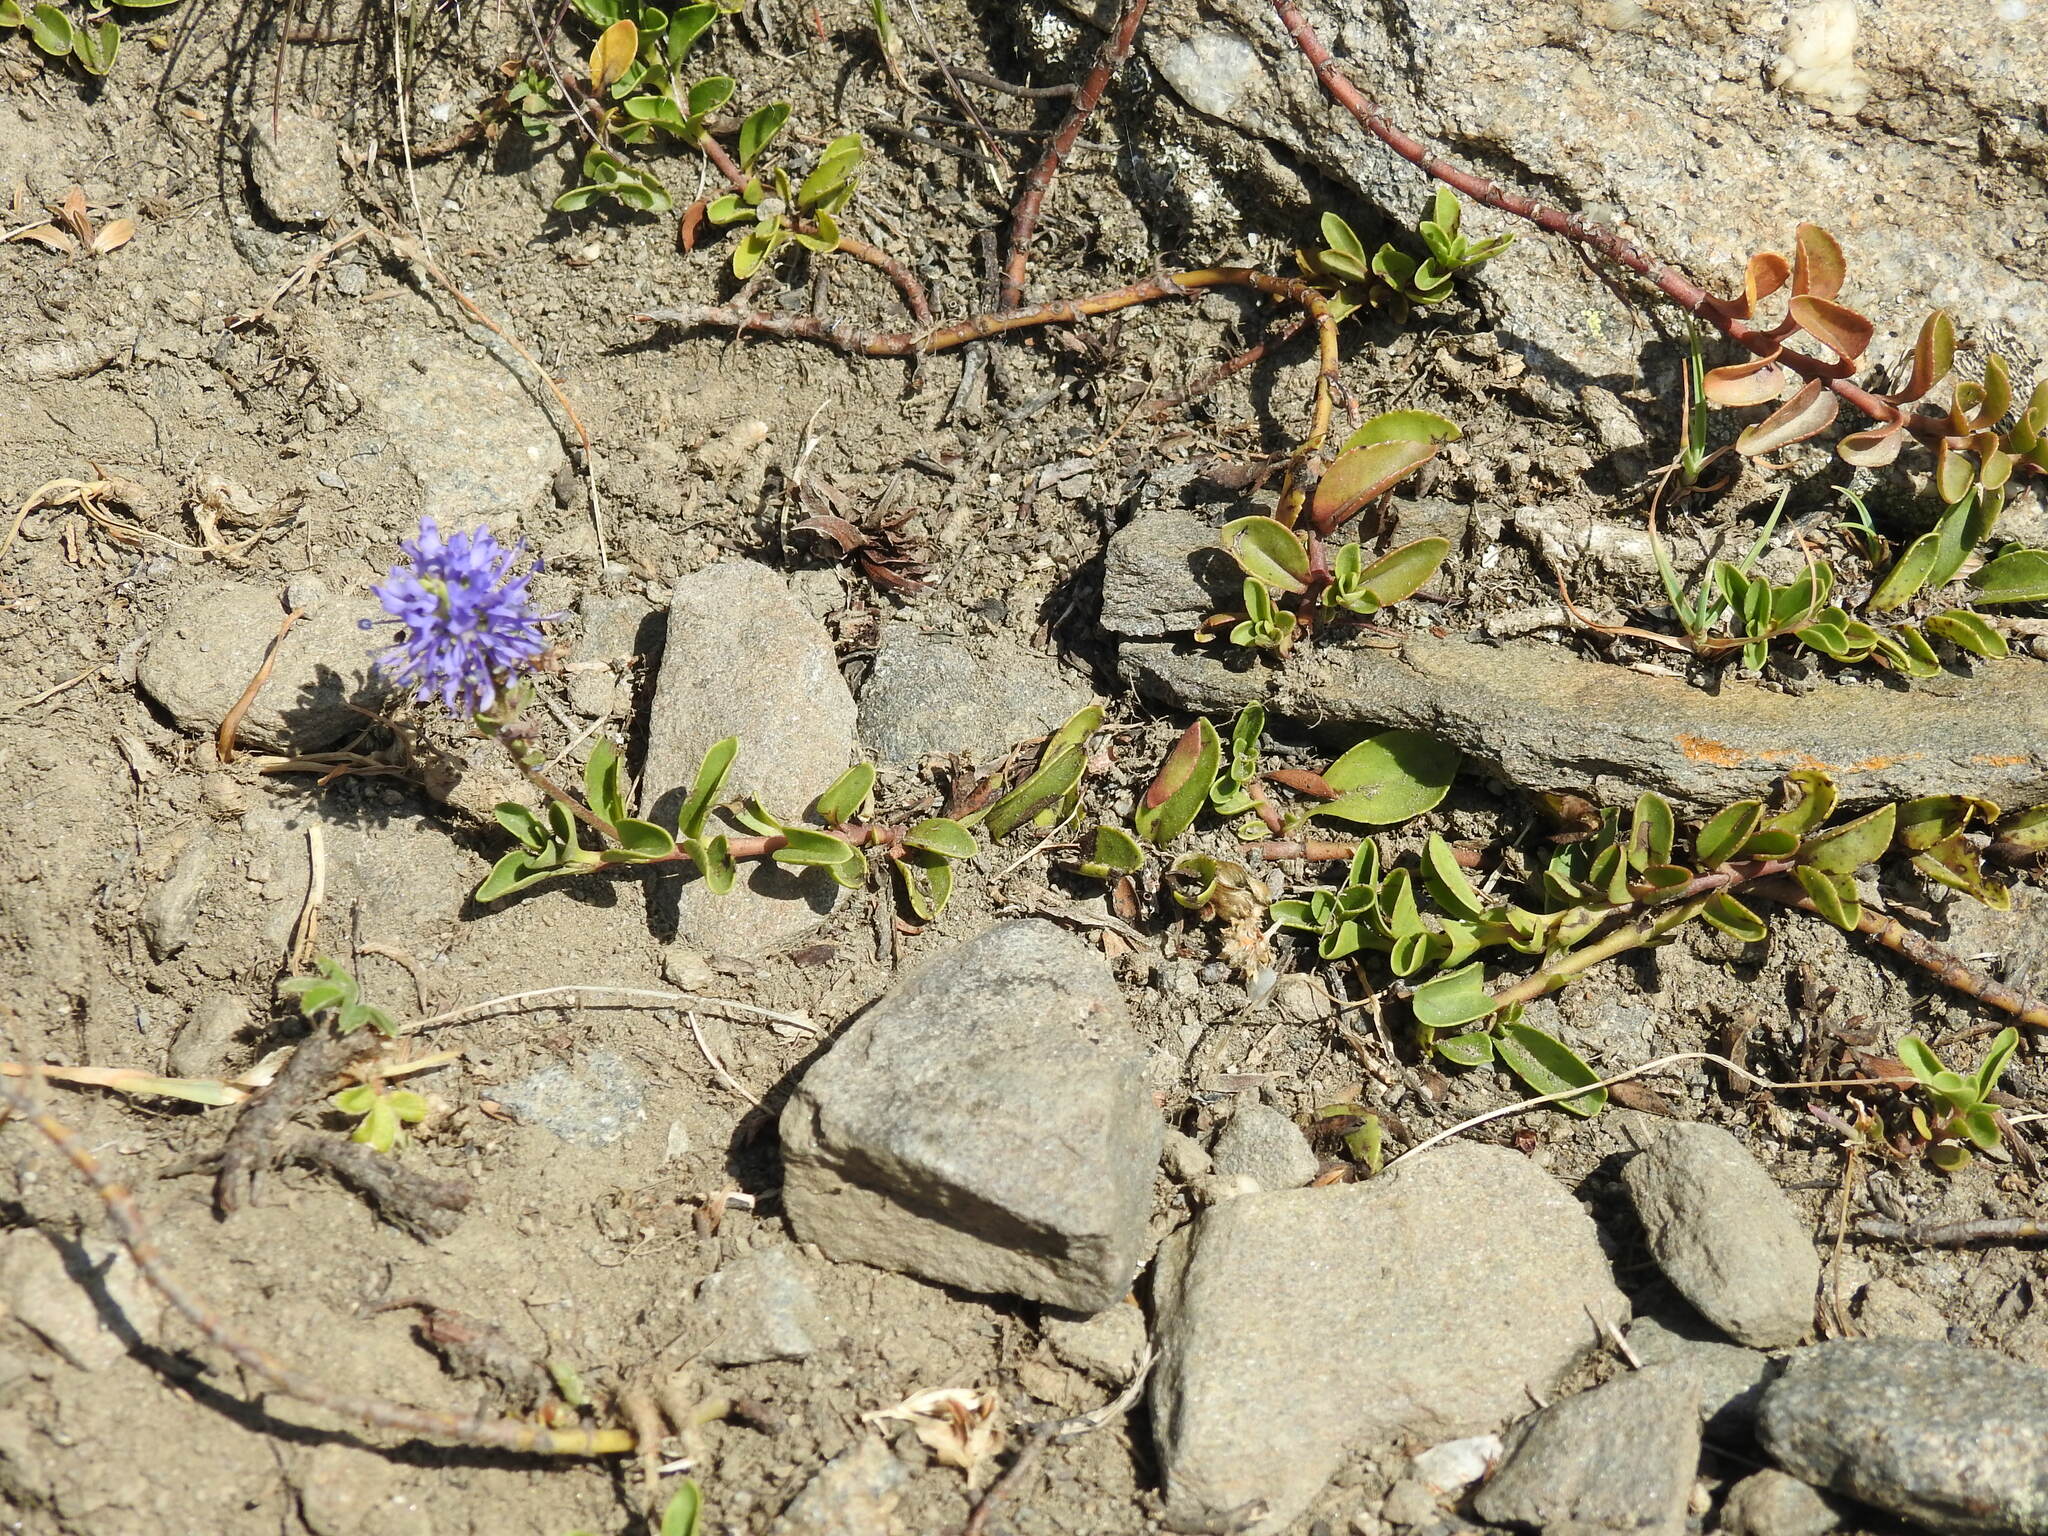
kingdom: Plantae
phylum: Tracheophyta
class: Magnoliopsida
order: Lamiales
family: Plantaginaceae
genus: Veronica
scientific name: Veronica allionii
